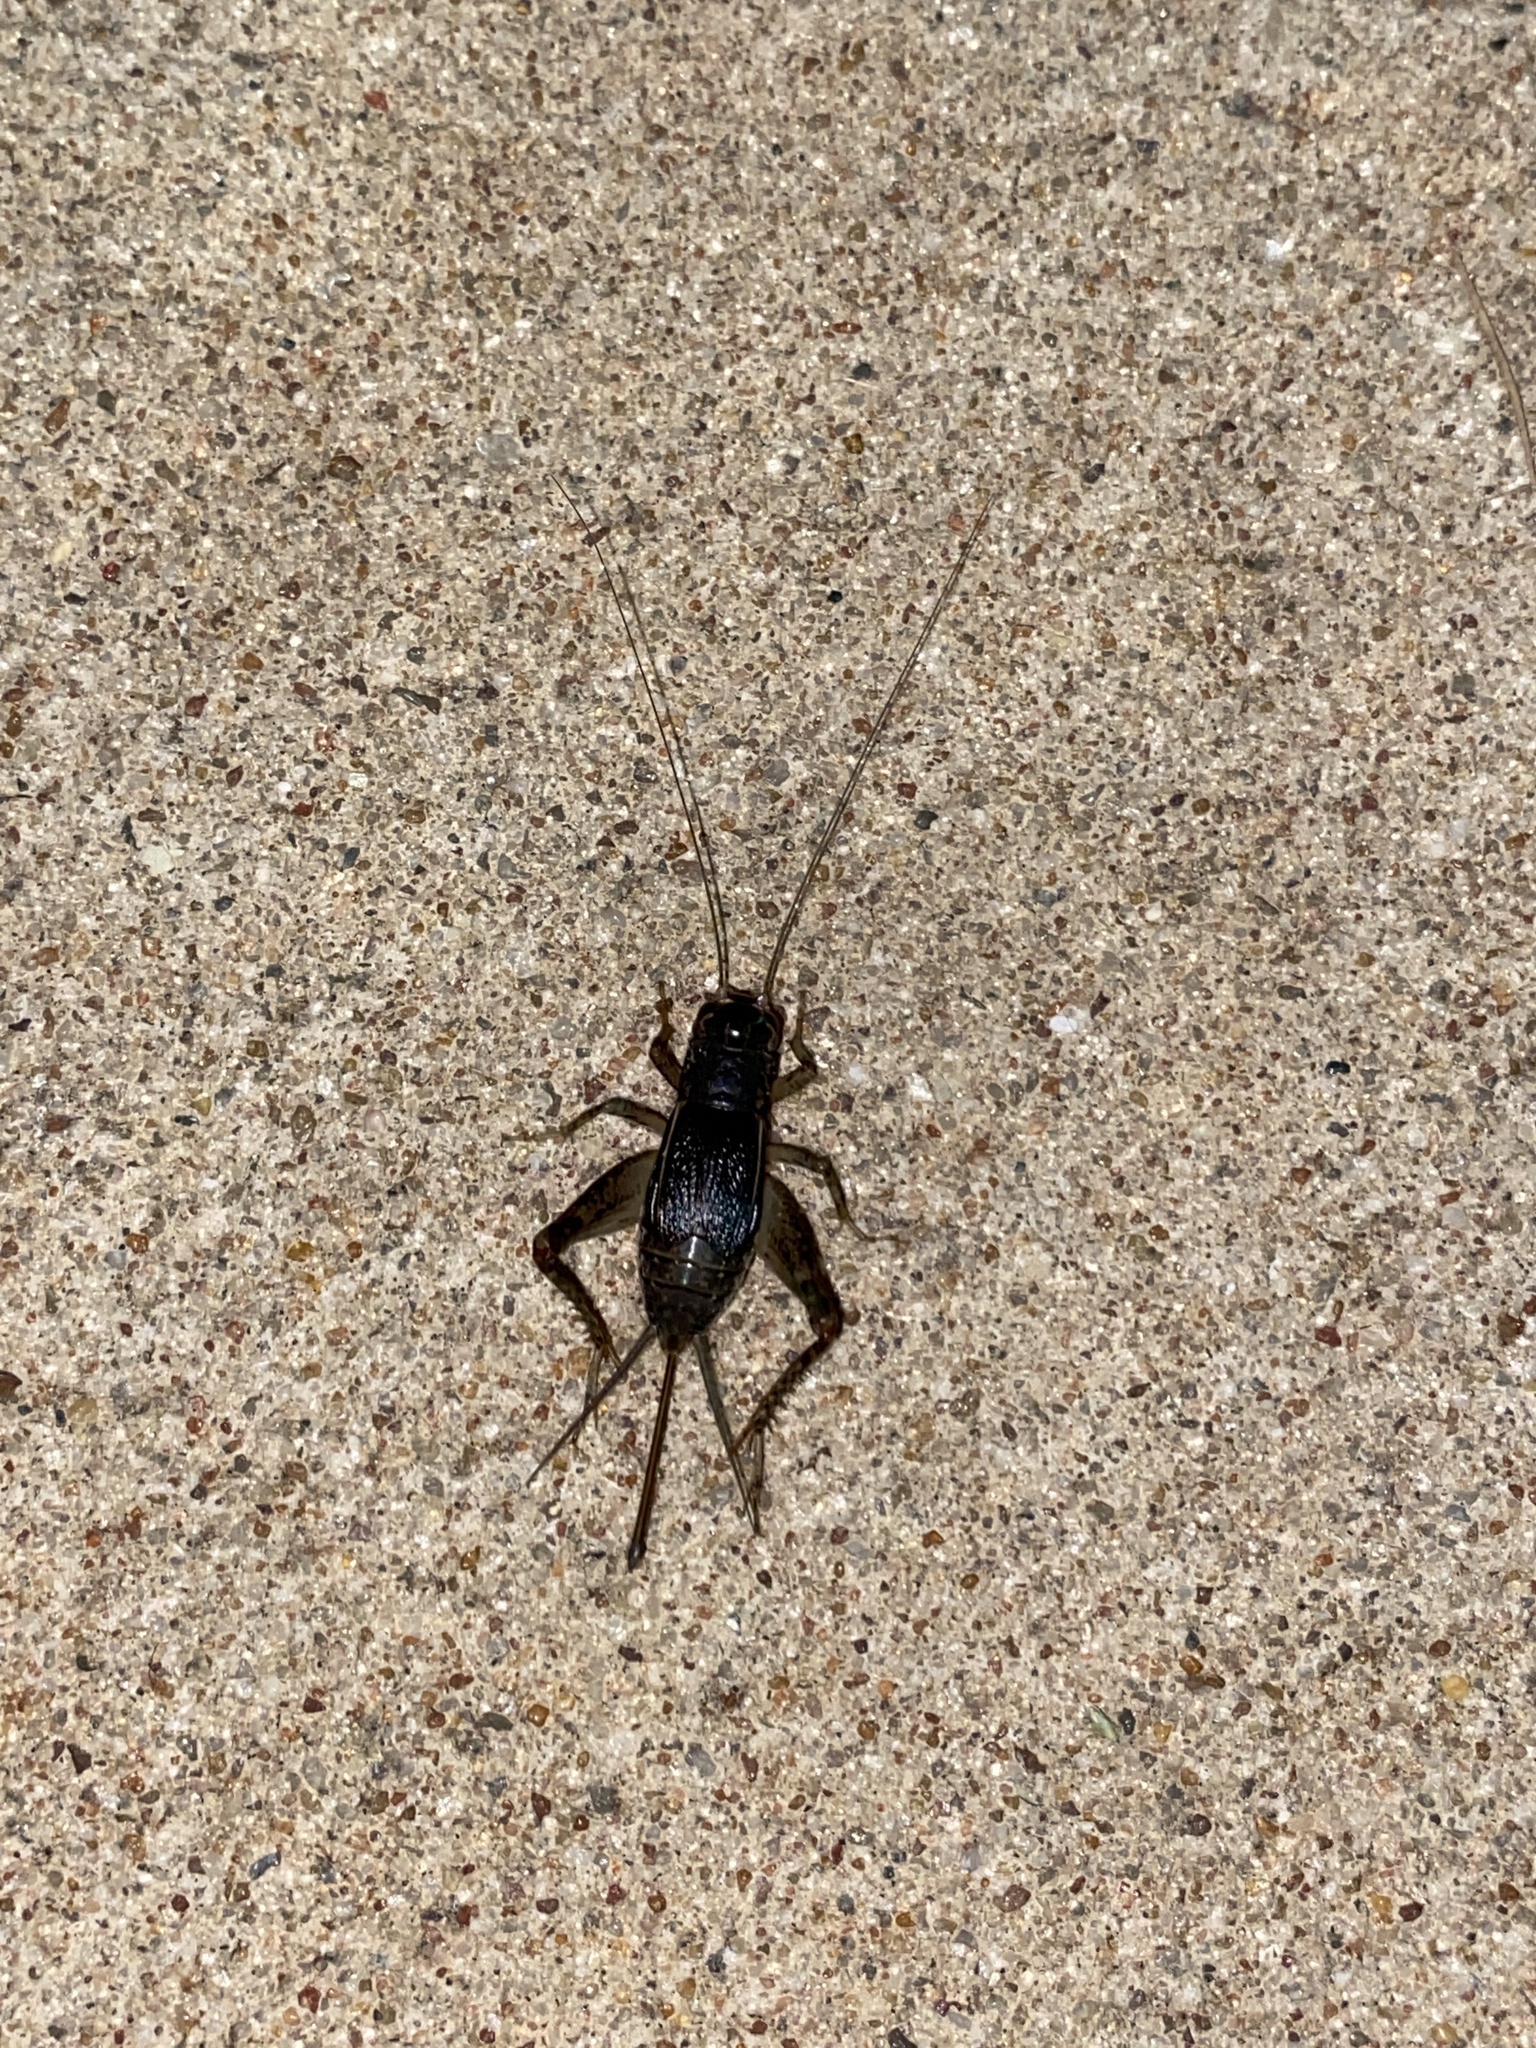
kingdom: Animalia
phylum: Arthropoda
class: Insecta
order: Orthoptera
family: Gryllidae
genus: Velarifictorus
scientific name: Velarifictorus micado
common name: Japanese burrowing cricket
